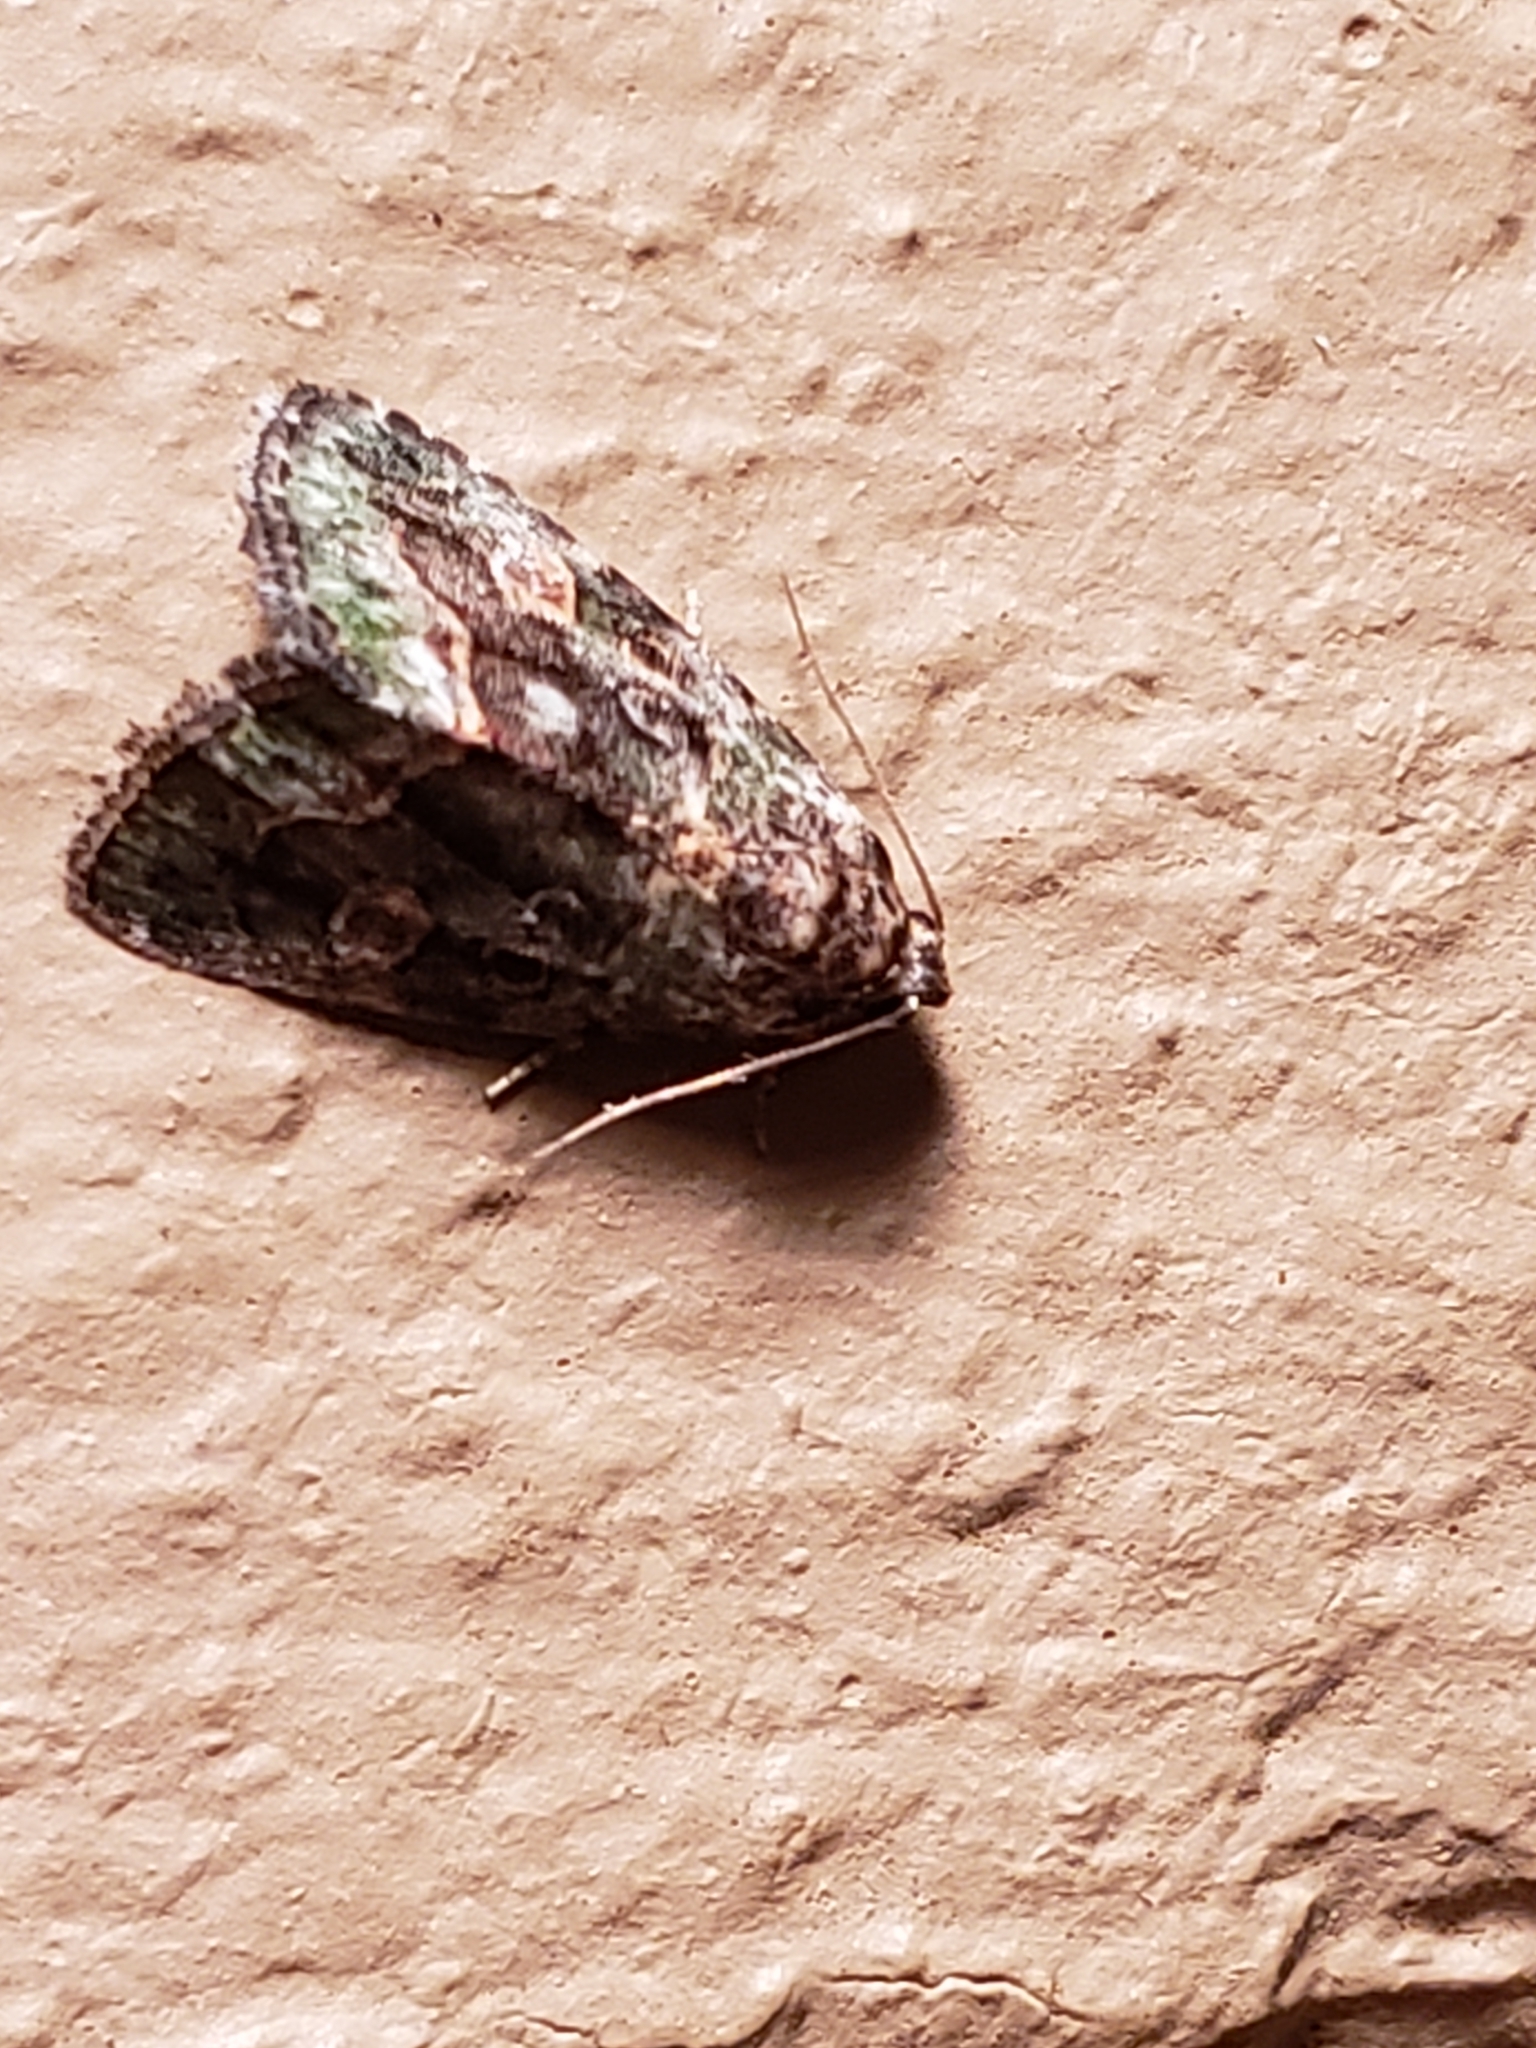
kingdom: Animalia
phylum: Arthropoda
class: Insecta
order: Lepidoptera
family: Noctuidae
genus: Lithacodia
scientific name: Lithacodia musta
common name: Small mossy glyph
